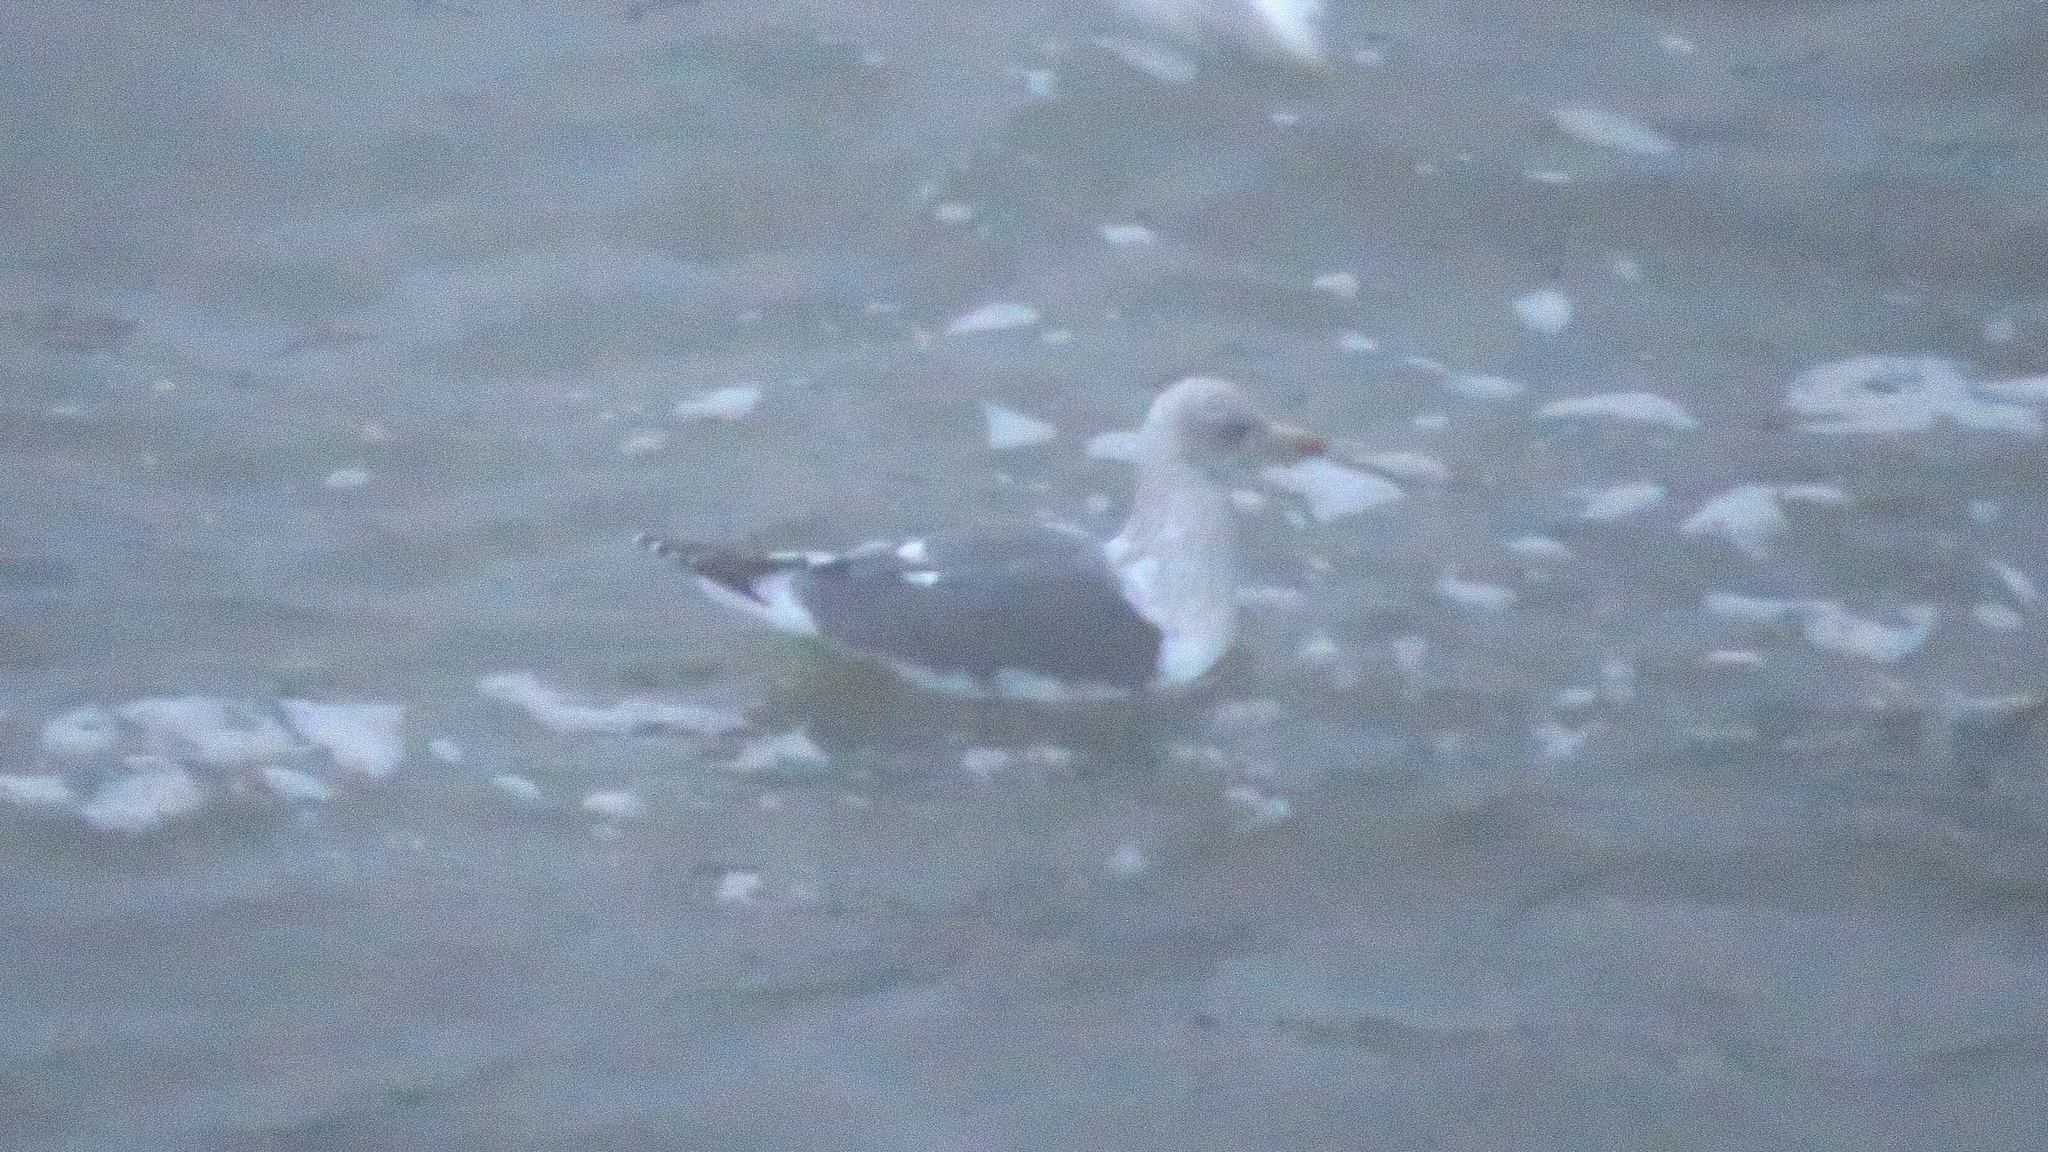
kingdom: Animalia
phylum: Chordata
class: Aves
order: Charadriiformes
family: Laridae
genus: Larus
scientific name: Larus fuscus
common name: Lesser black-backed gull
